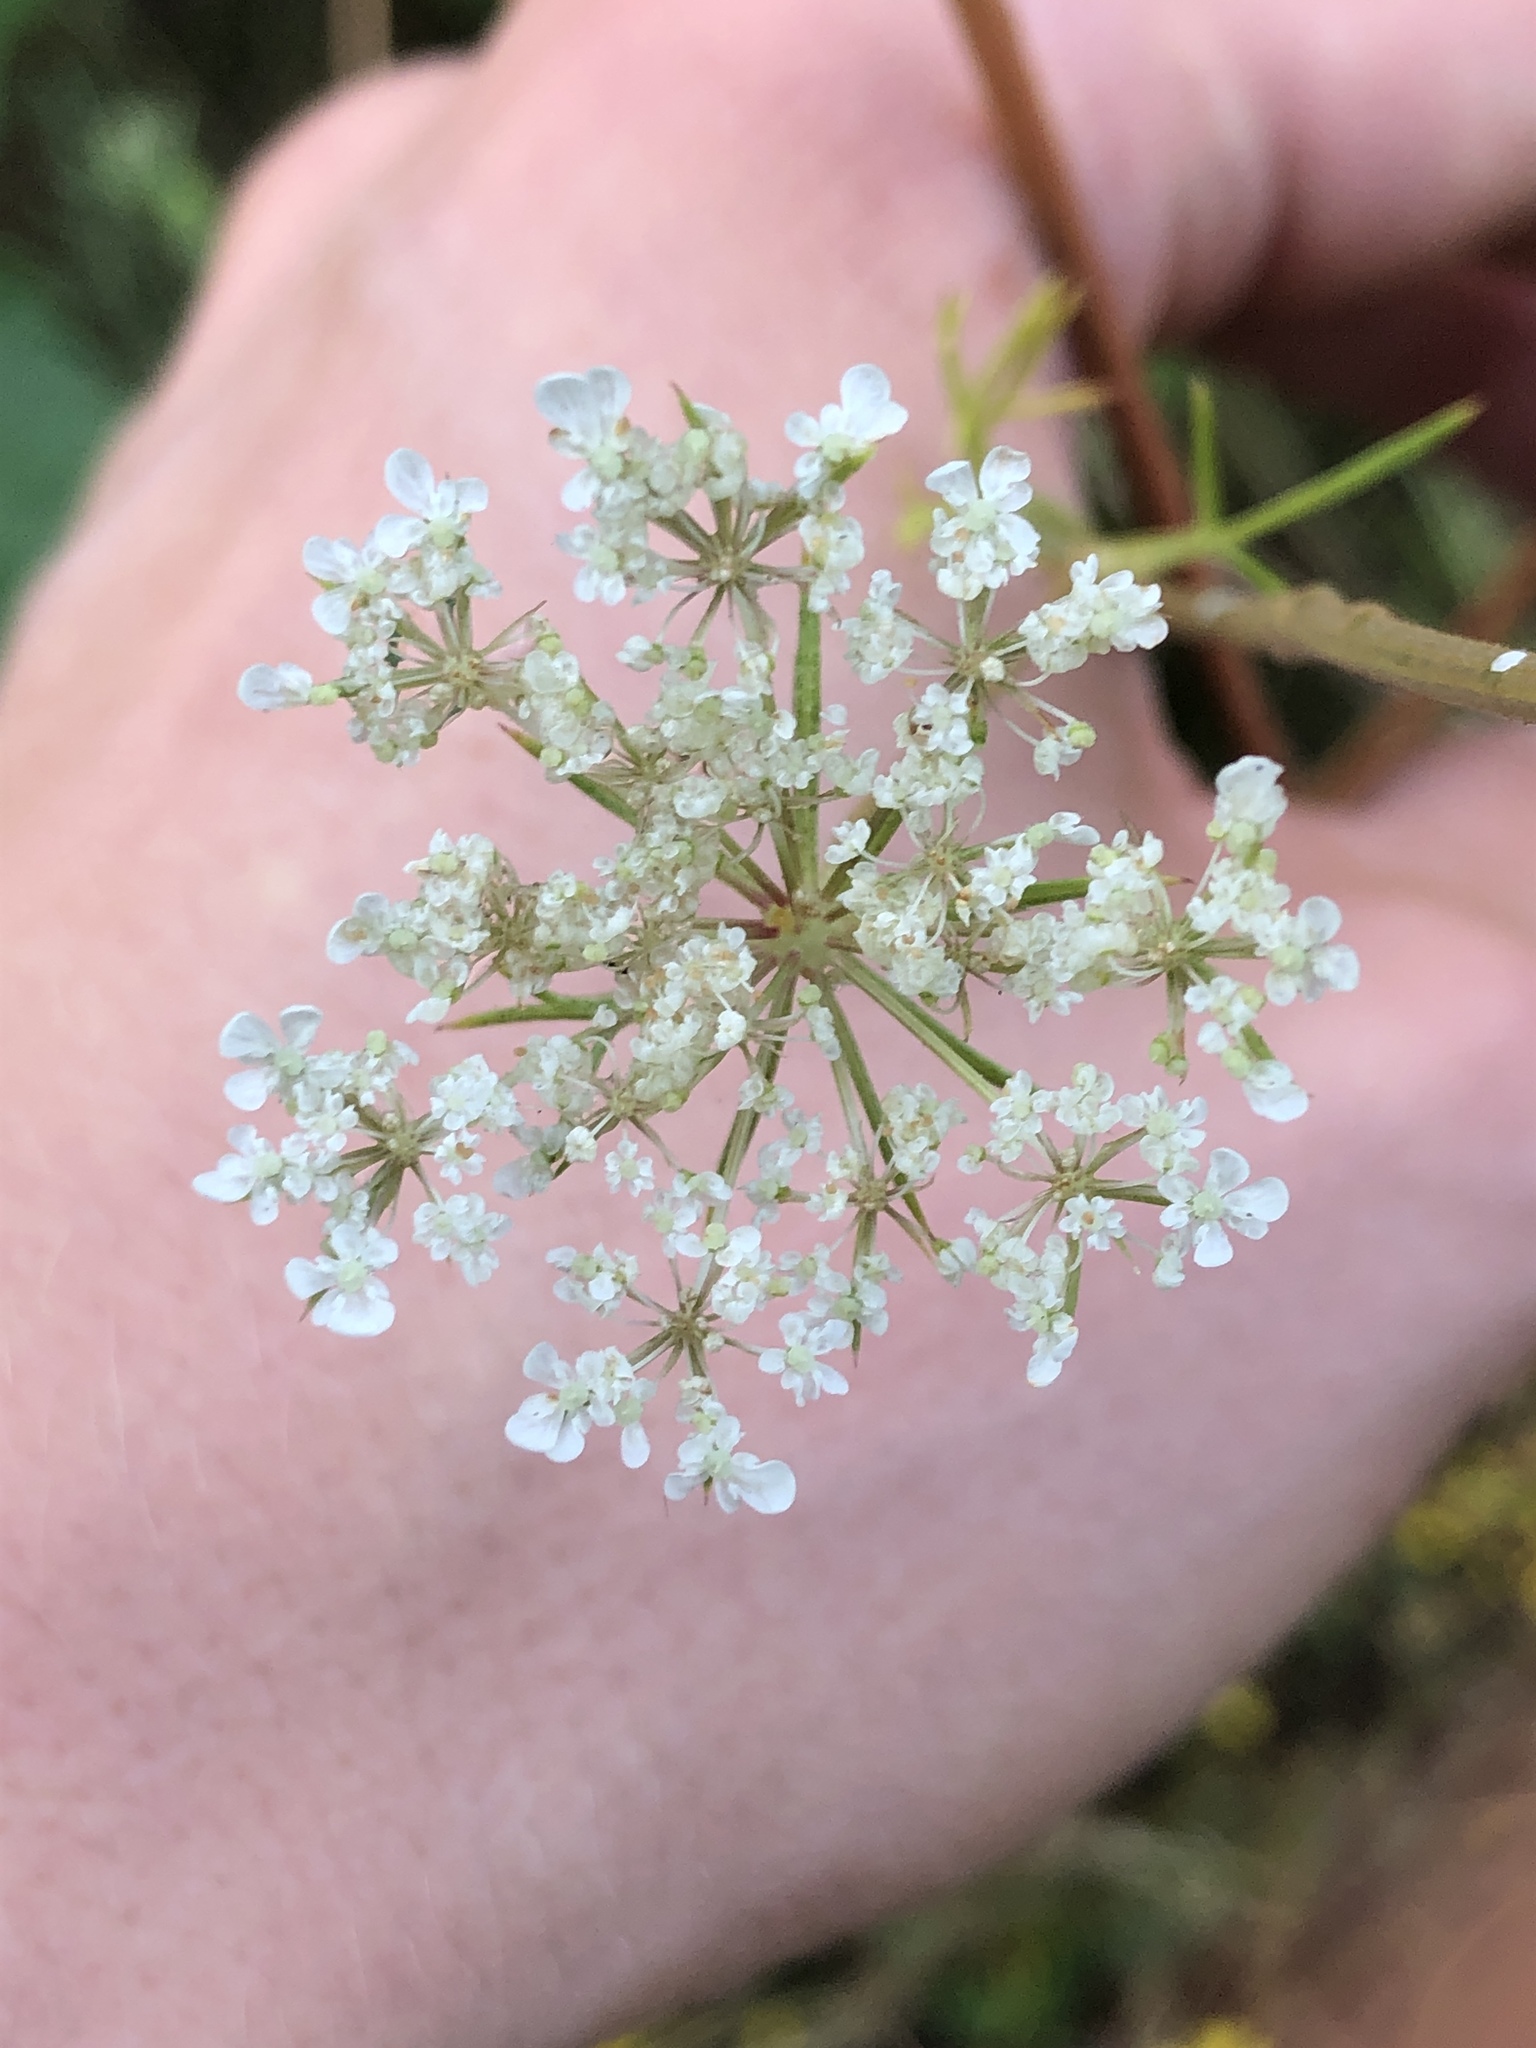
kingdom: Plantae
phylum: Tracheophyta
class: Magnoliopsida
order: Apiales
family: Apiaceae
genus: Daucus
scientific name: Daucus carota
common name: Wild carrot
